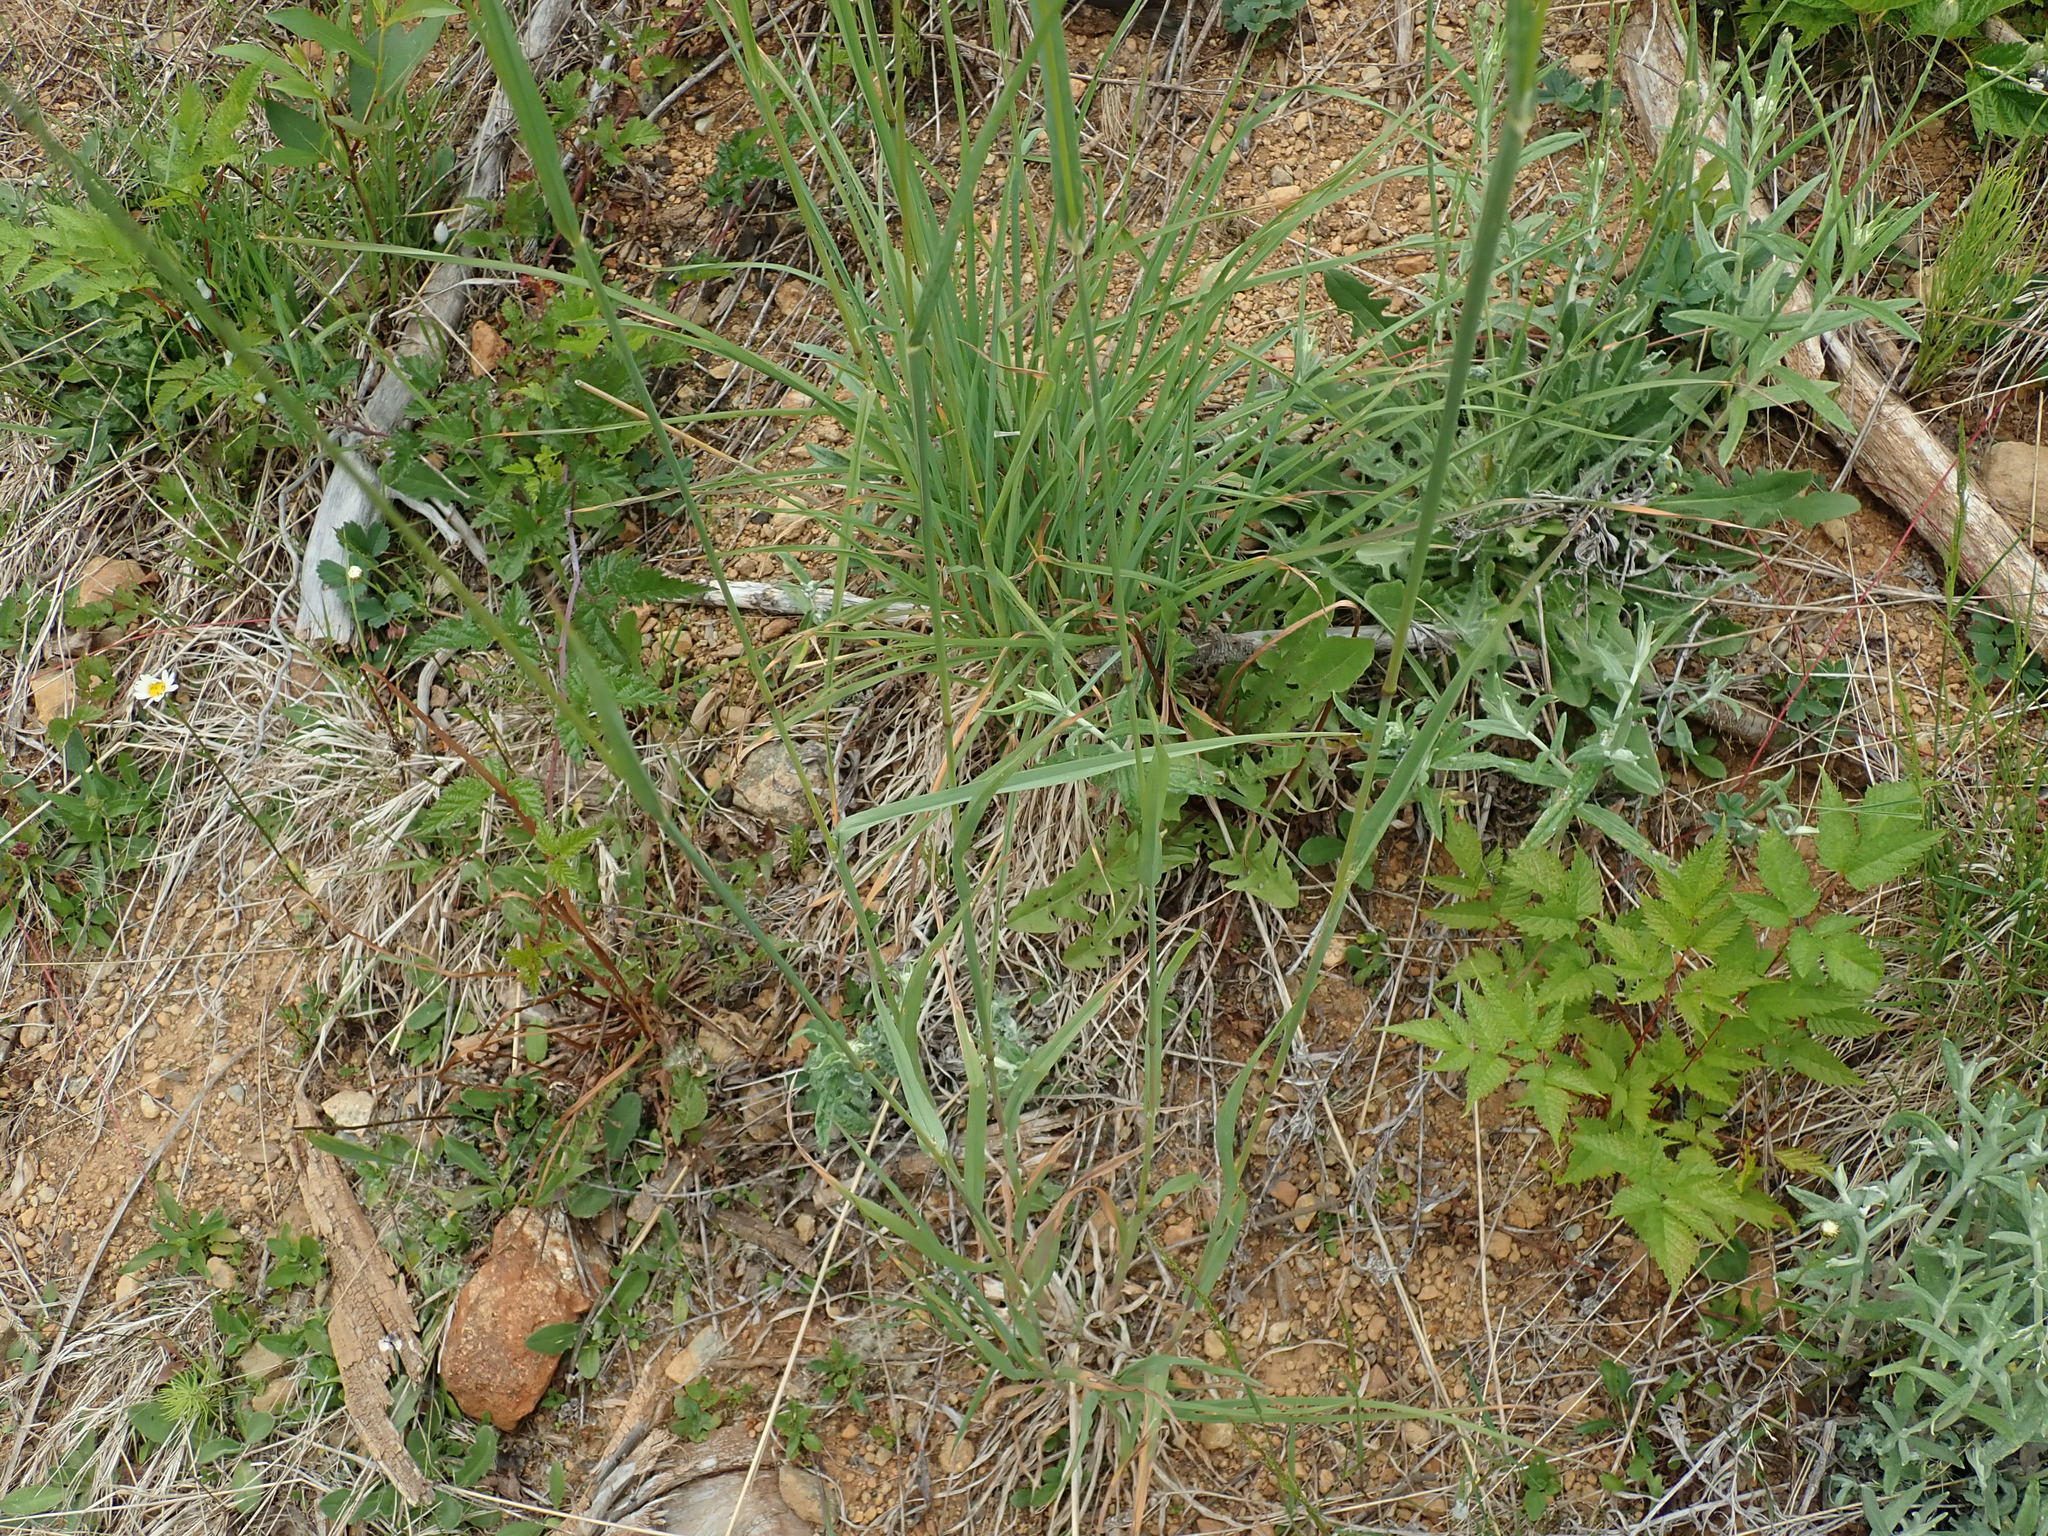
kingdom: Plantae
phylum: Tracheophyta
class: Liliopsida
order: Poales
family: Poaceae
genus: Dactylis
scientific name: Dactylis glomerata
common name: Orchardgrass
